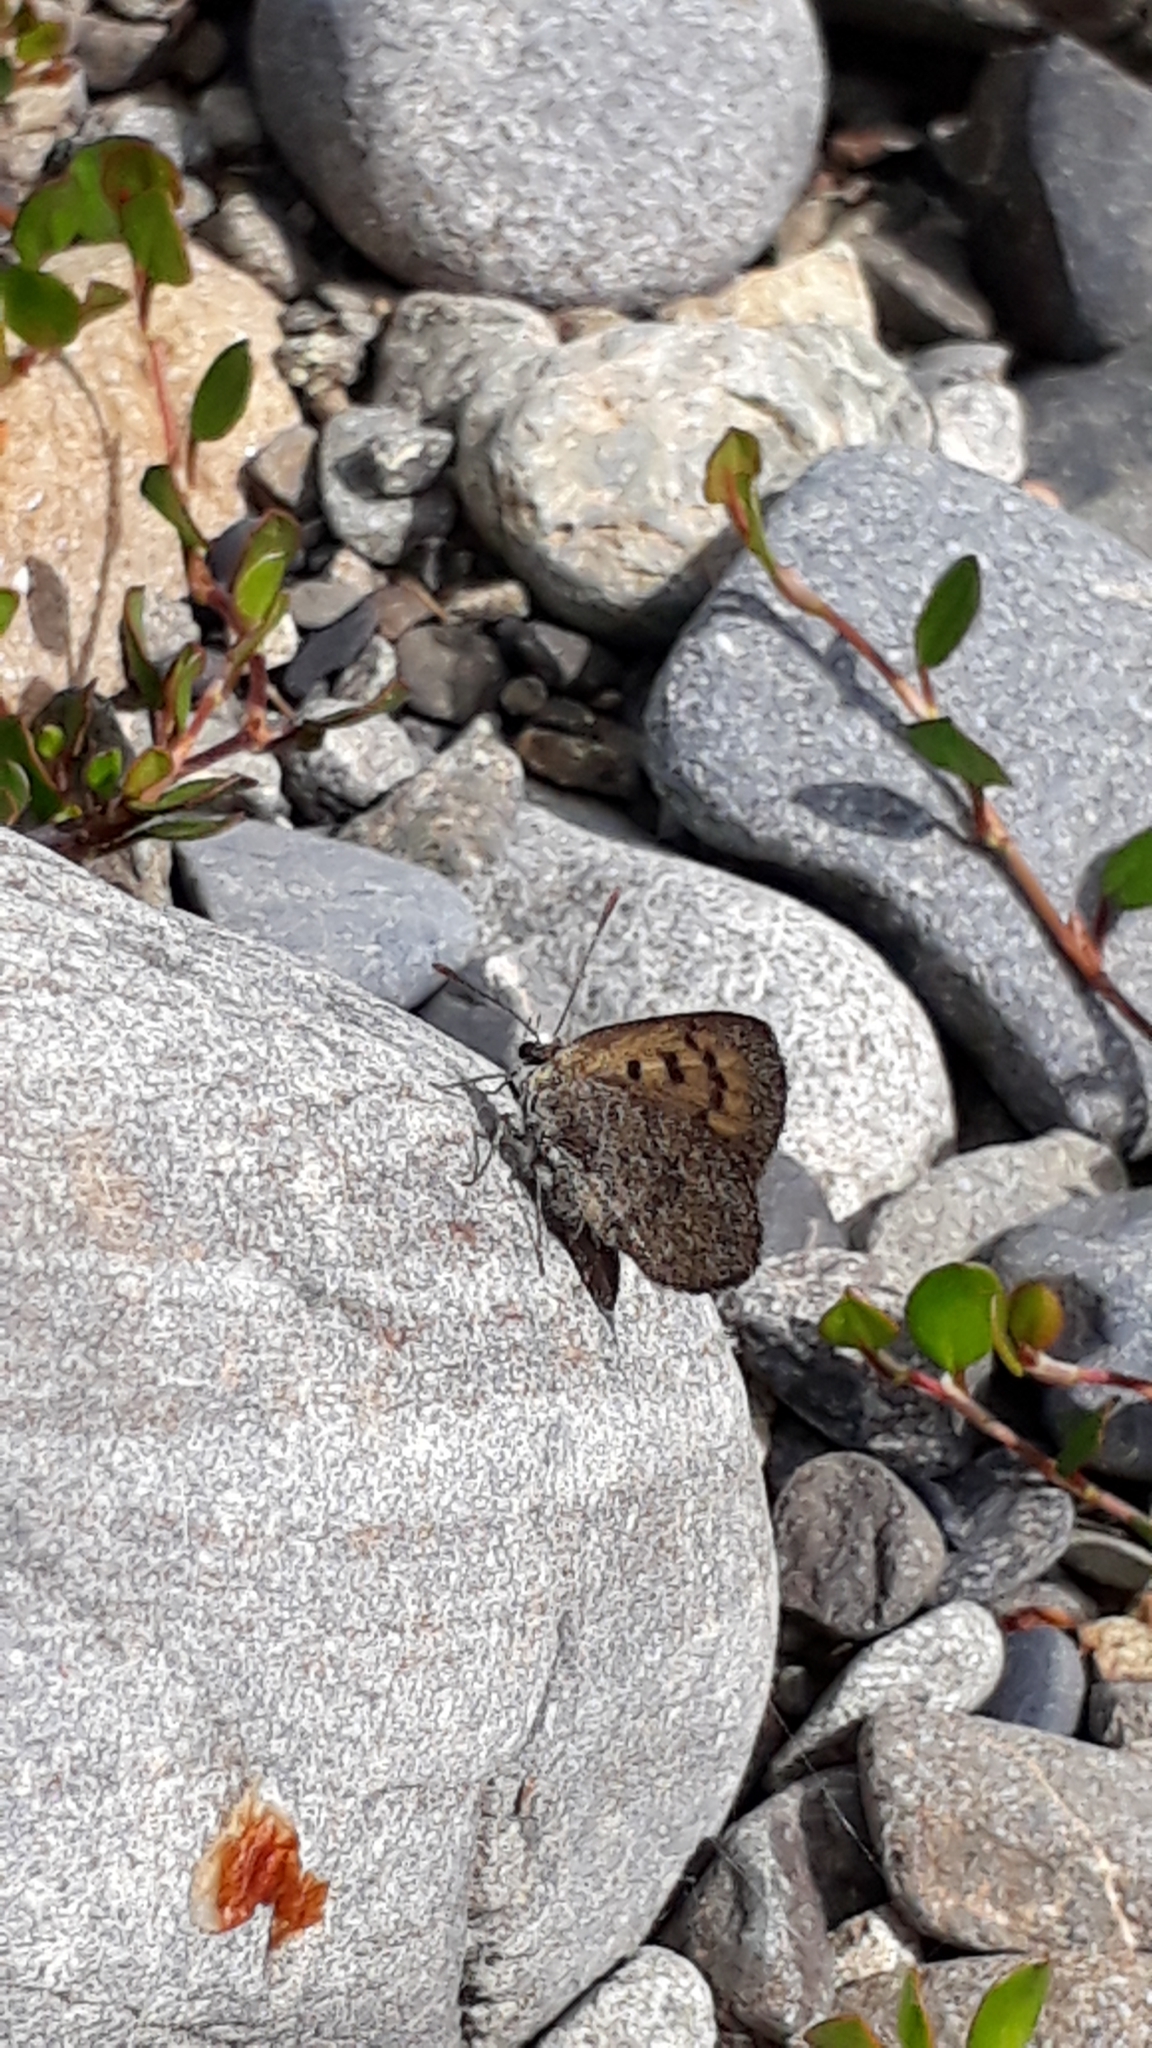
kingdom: Animalia
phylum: Arthropoda
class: Insecta
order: Lepidoptera
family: Lycaenidae
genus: Lycaena
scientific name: Lycaena boldenarum
